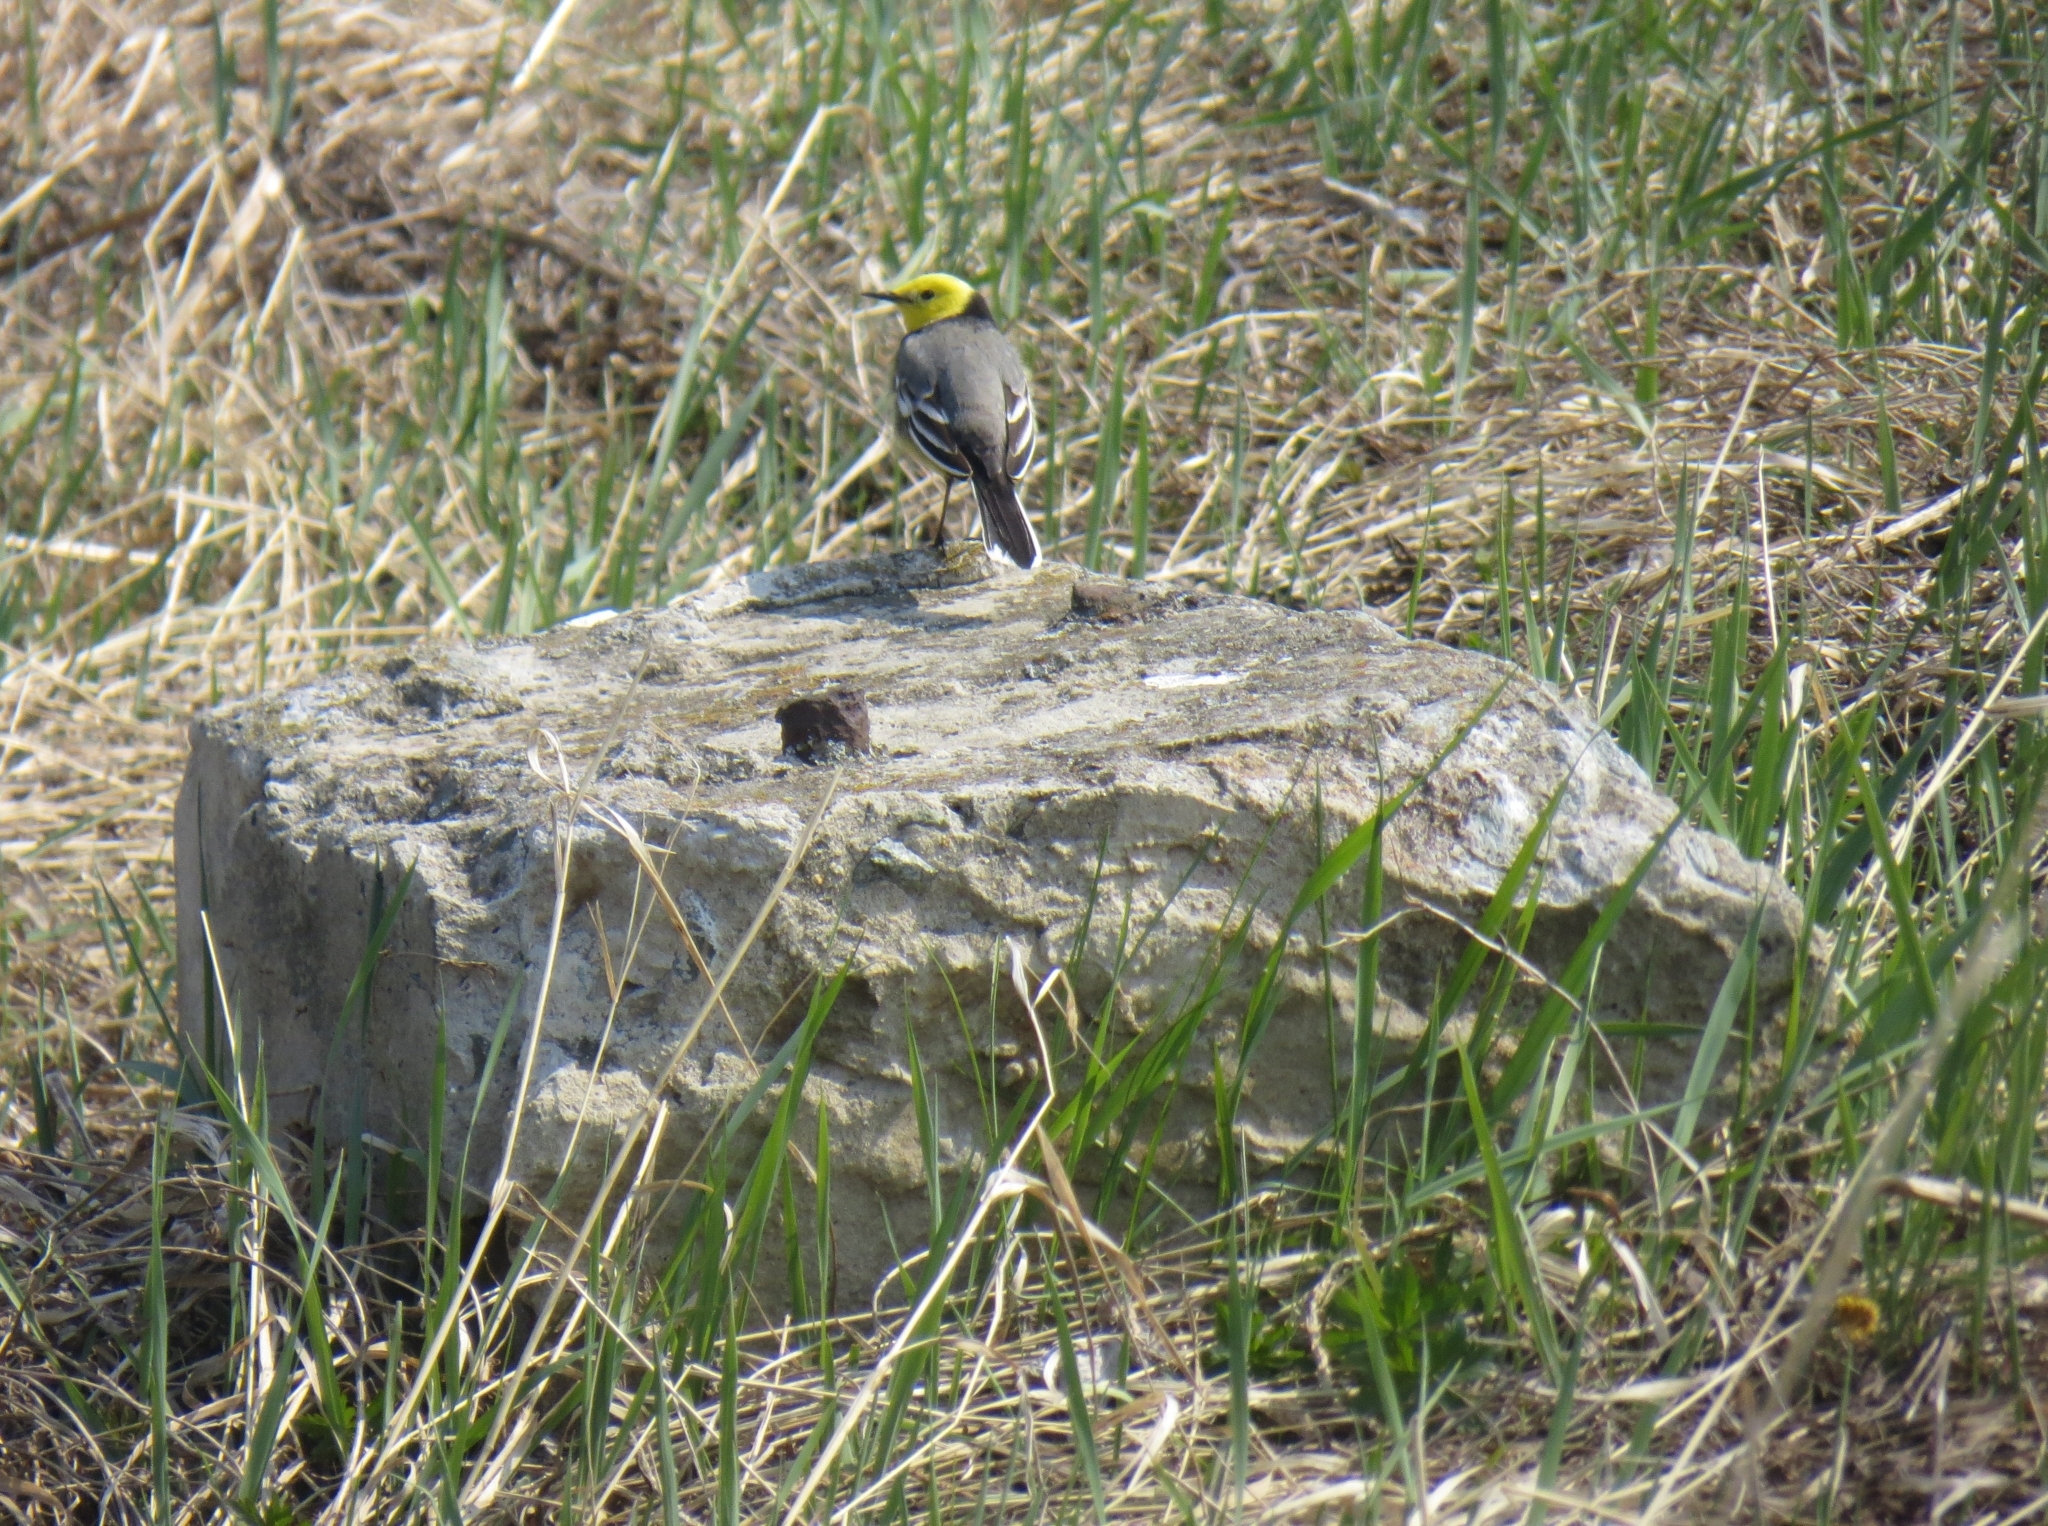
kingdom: Animalia
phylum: Chordata
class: Aves
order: Passeriformes
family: Motacillidae
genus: Motacilla
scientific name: Motacilla citreola
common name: Citrine wagtail
